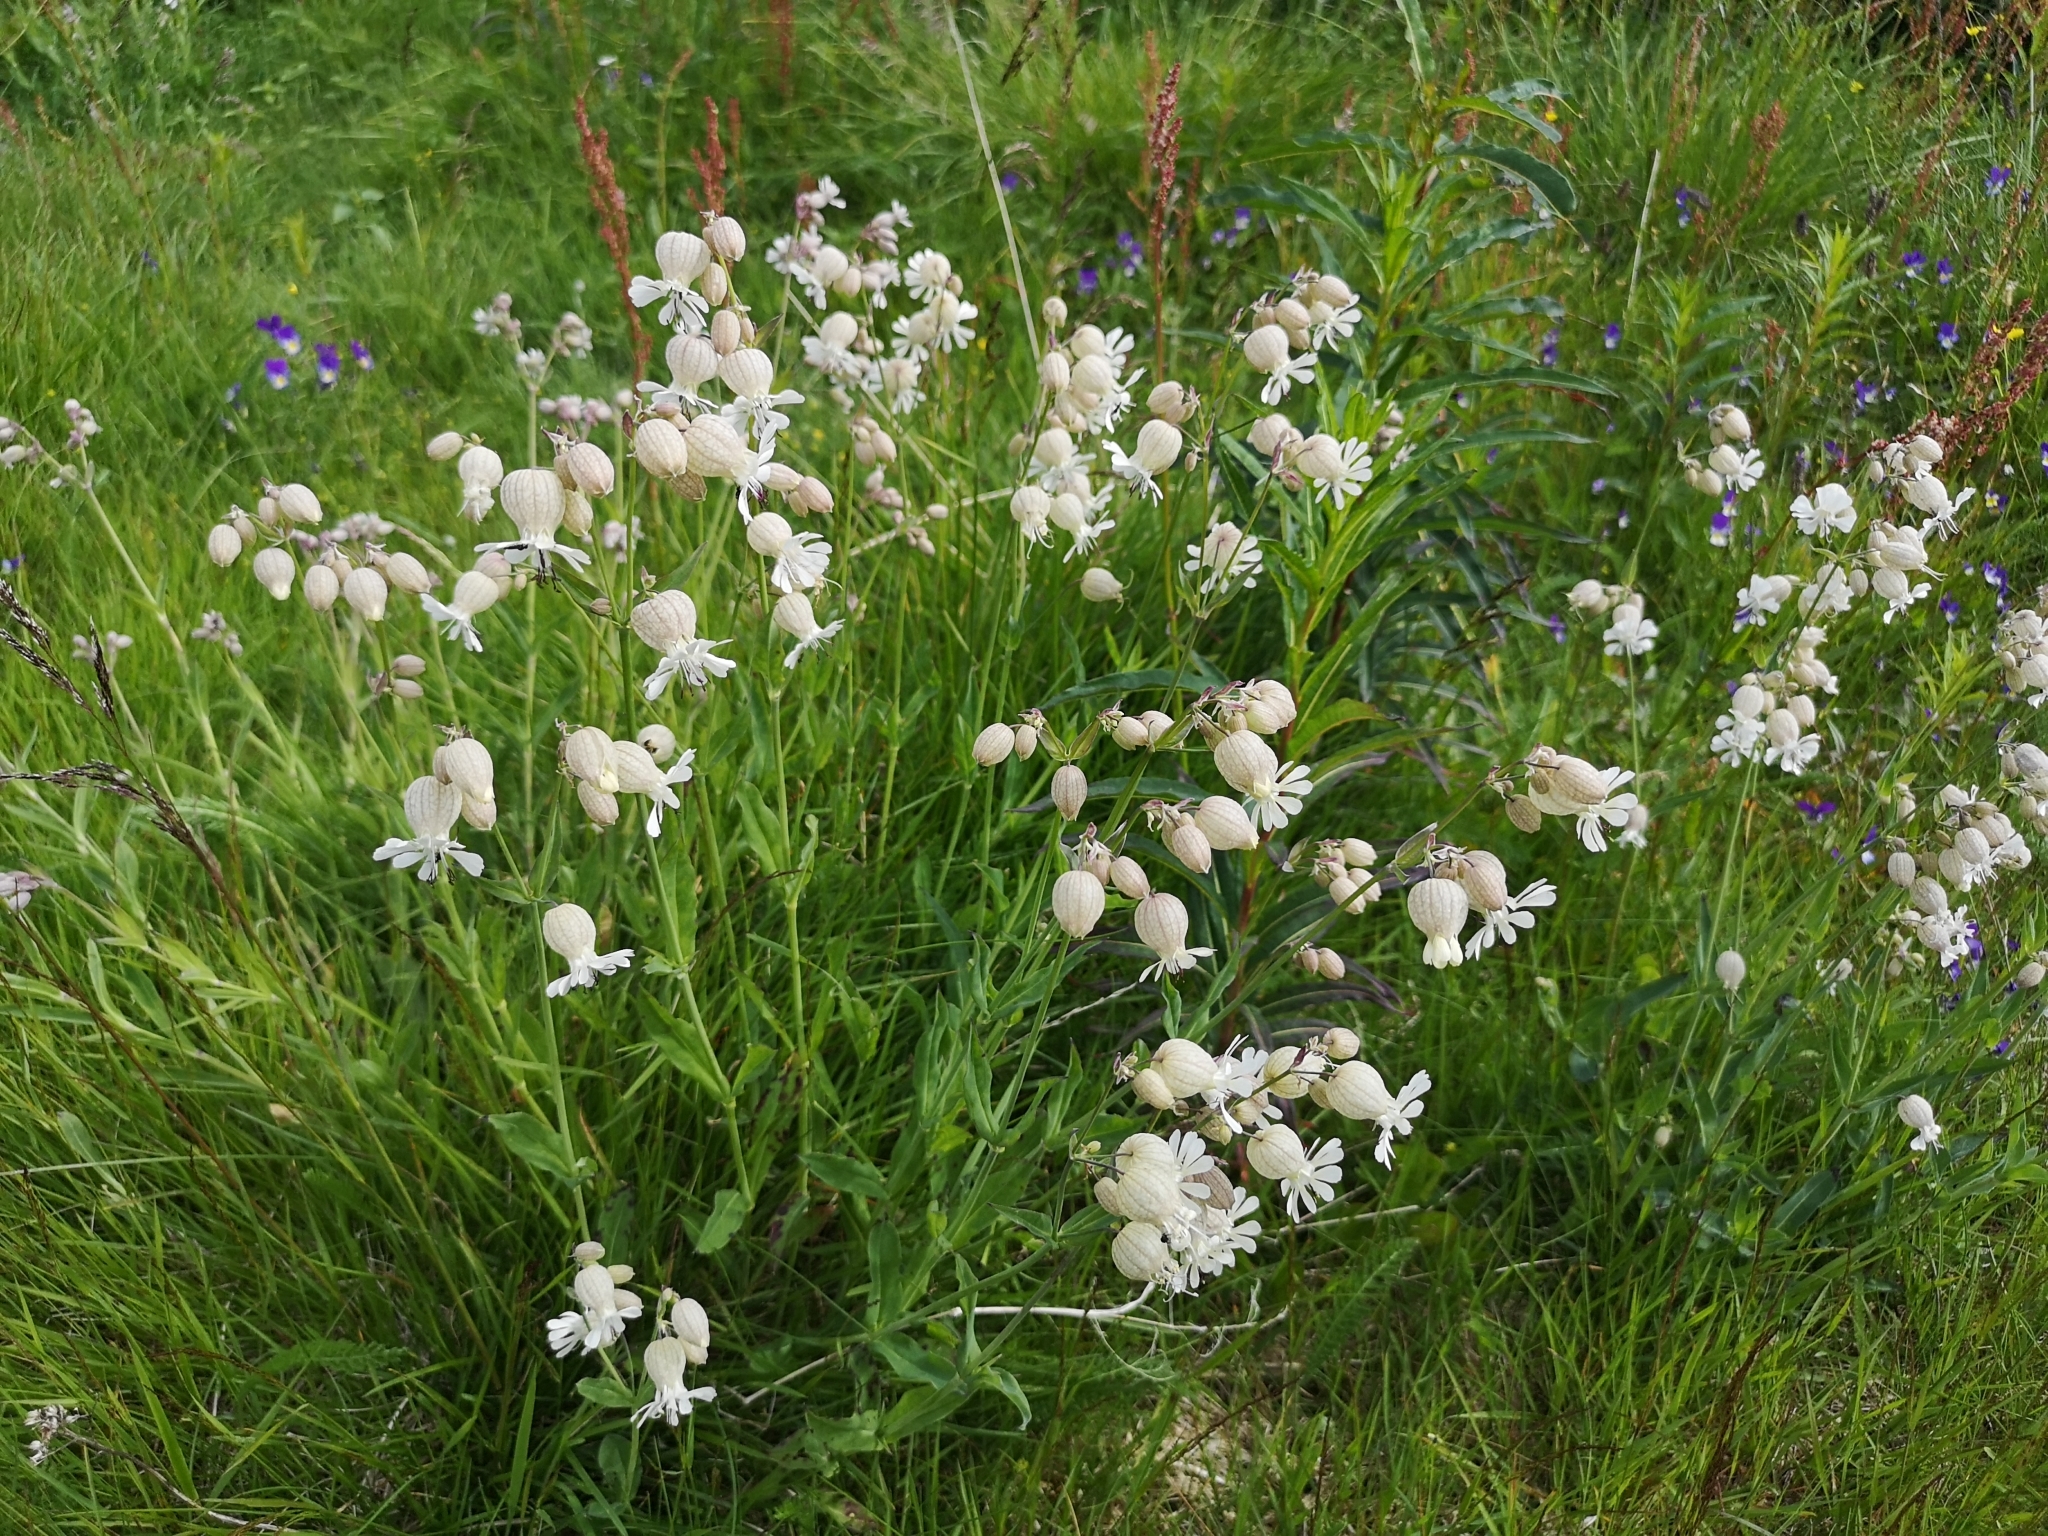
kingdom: Plantae
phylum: Tracheophyta
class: Magnoliopsida
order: Caryophyllales
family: Caryophyllaceae
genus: Silene
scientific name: Silene vulgaris
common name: Bladder campion
